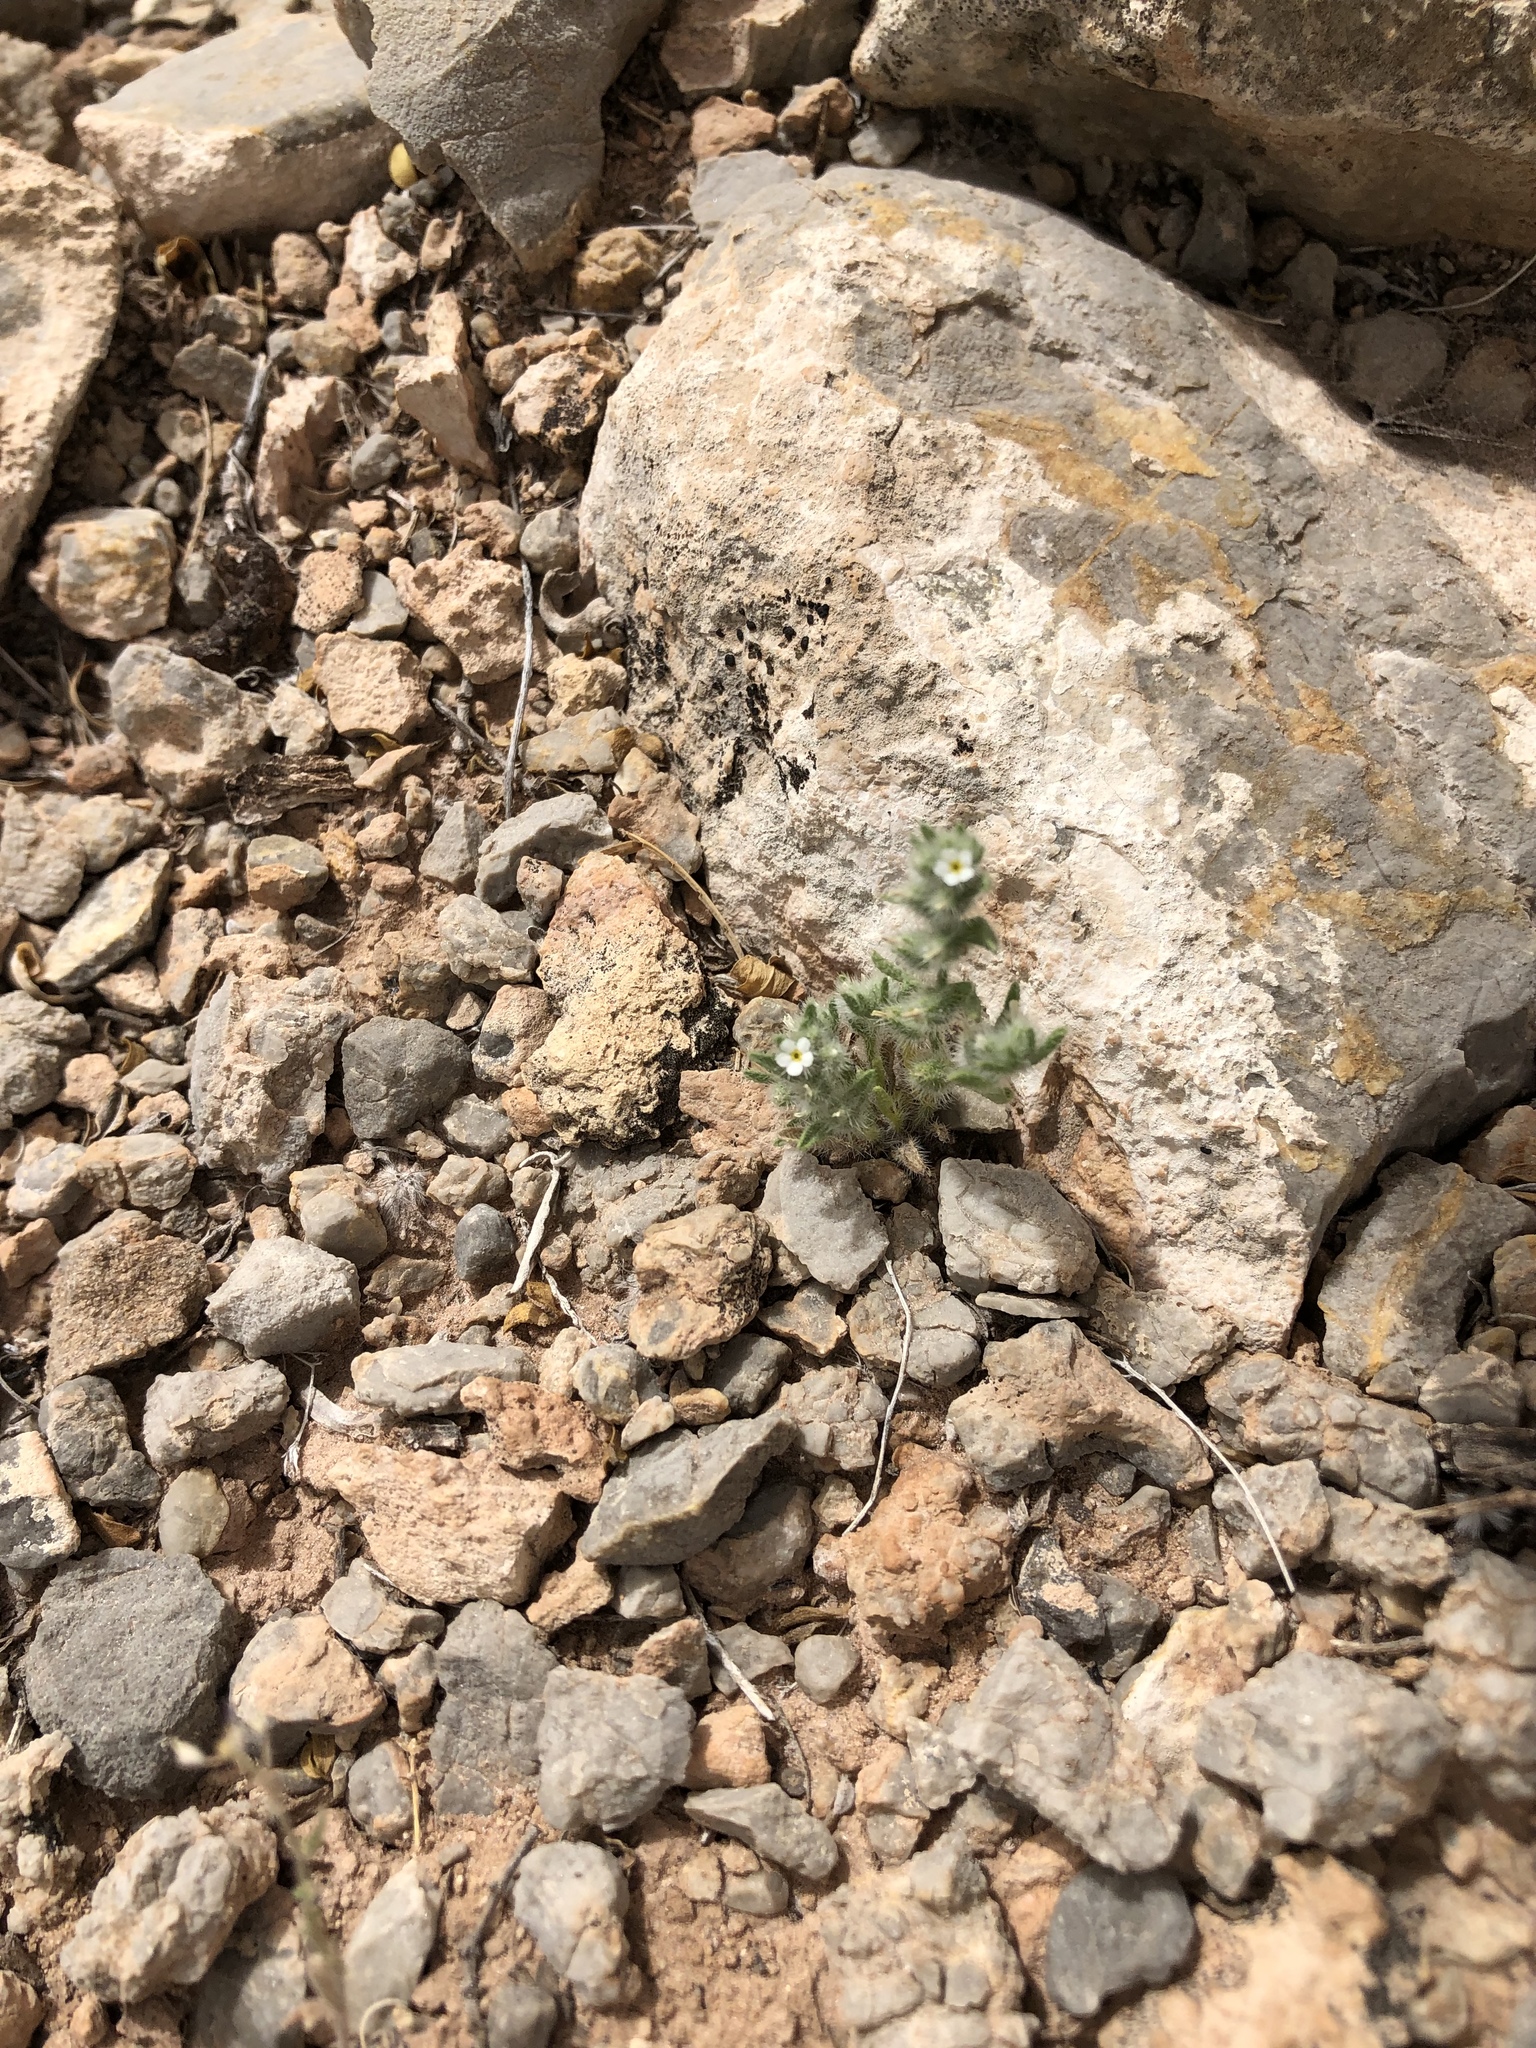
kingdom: Plantae
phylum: Tracheophyta
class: Magnoliopsida
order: Boraginales
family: Boraginaceae
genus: Cryptantha
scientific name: Cryptantha minima
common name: Little cat's-eye
